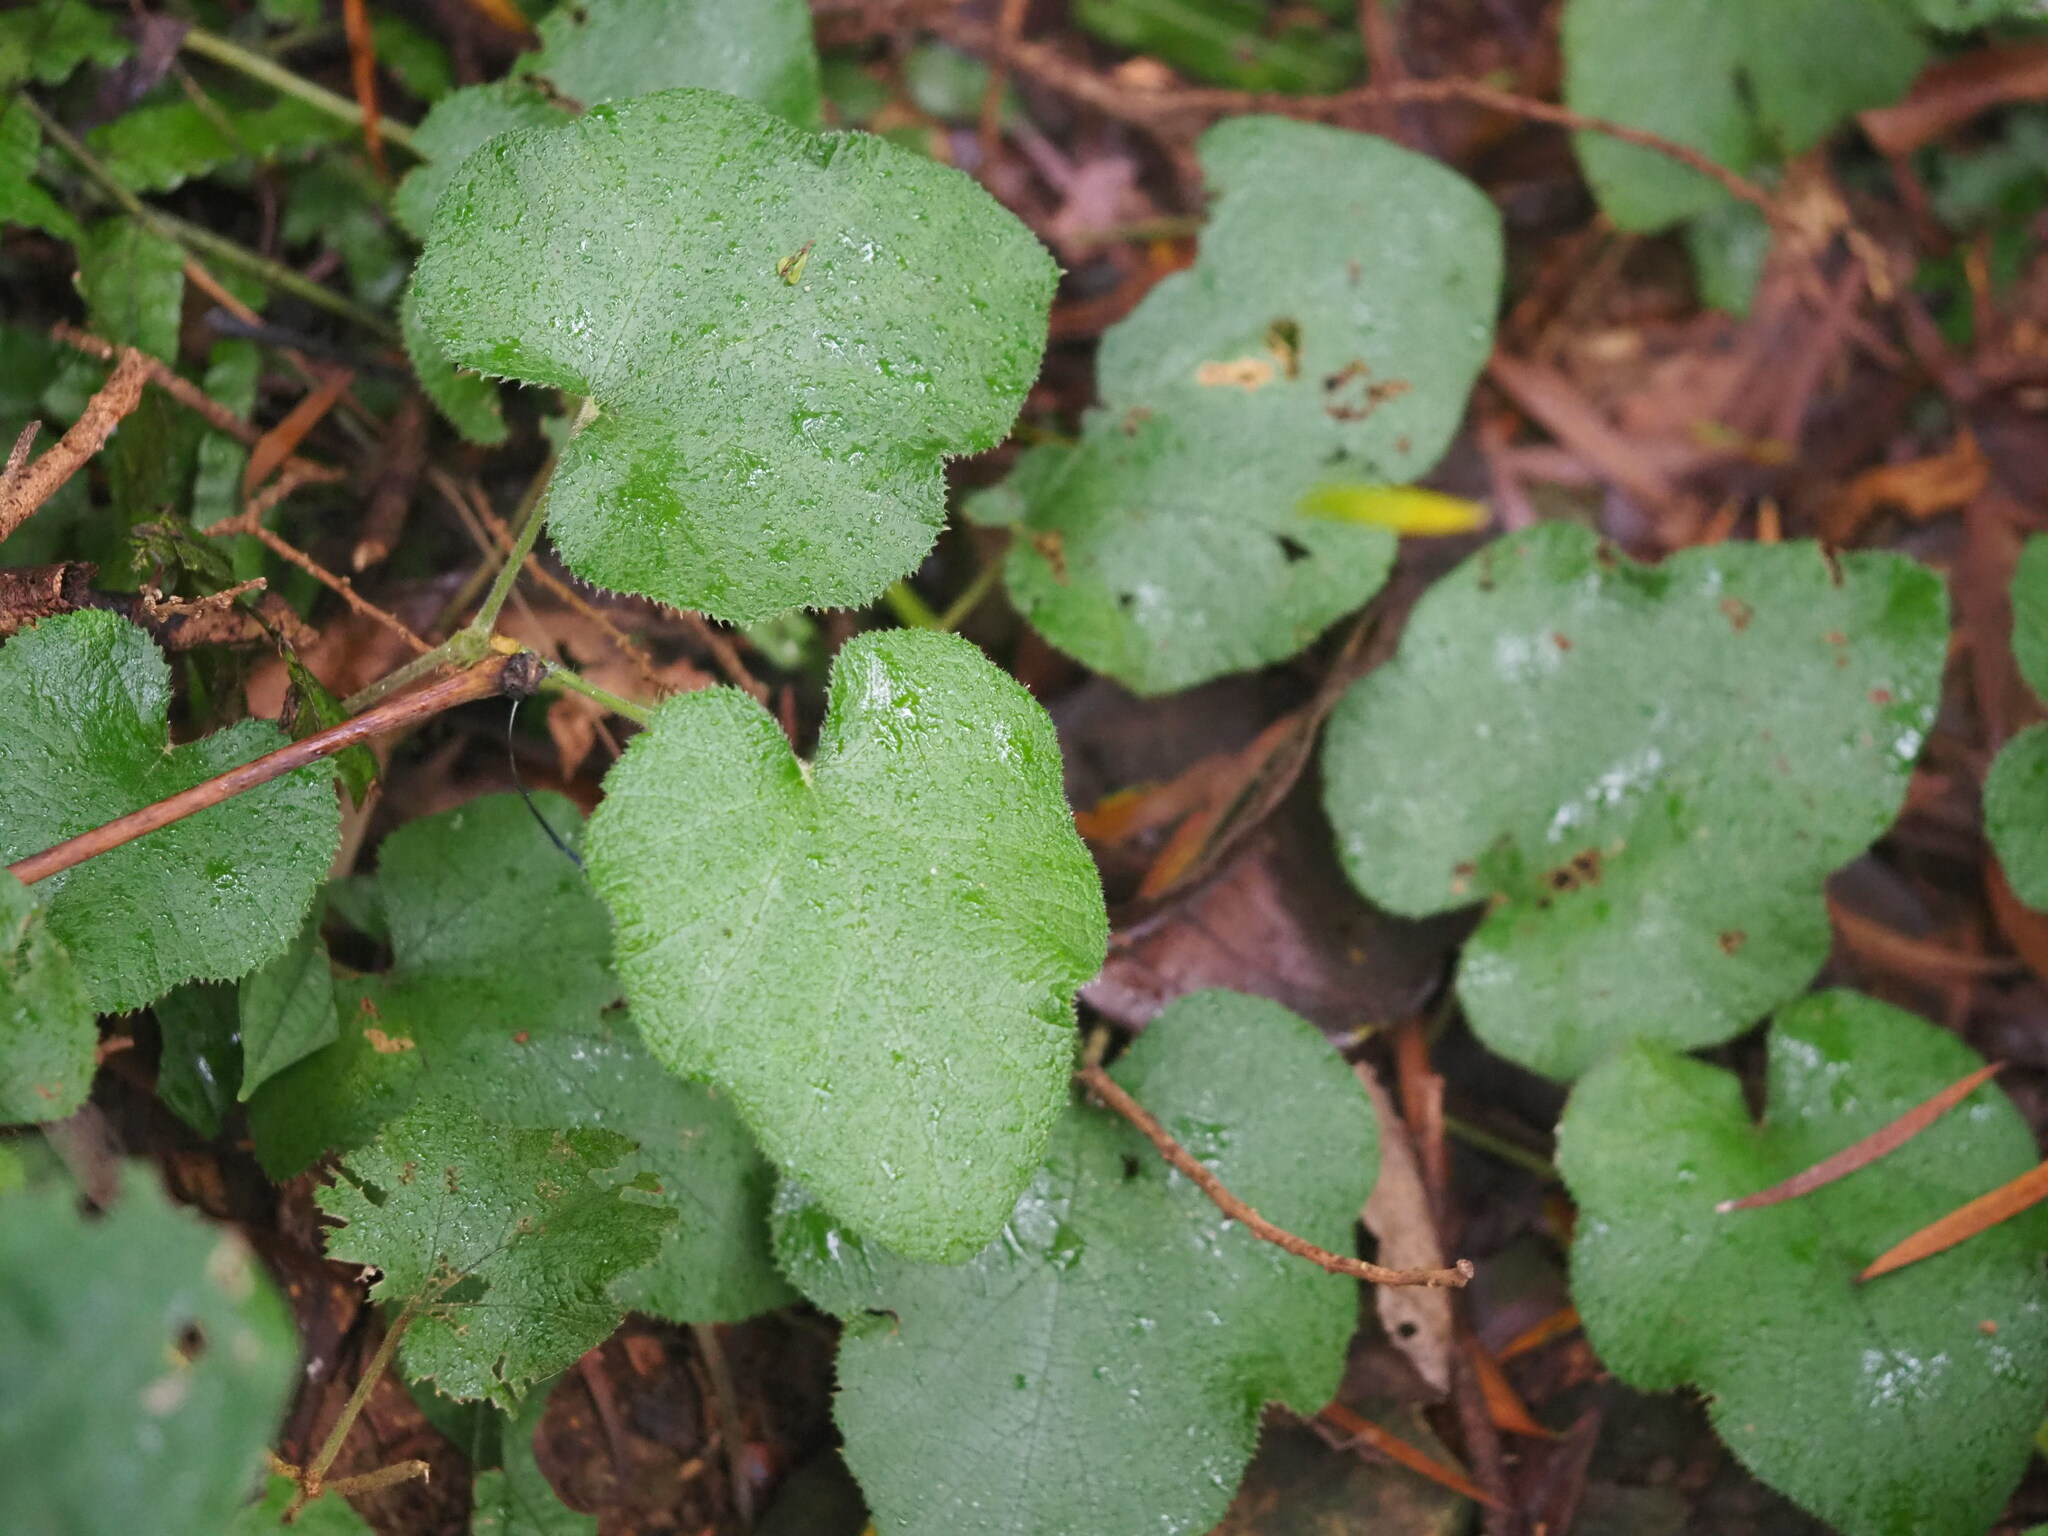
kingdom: Plantae
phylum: Tracheophyta
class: Magnoliopsida
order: Rosales
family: Rosaceae
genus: Rubus
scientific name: Rubus buergeri
